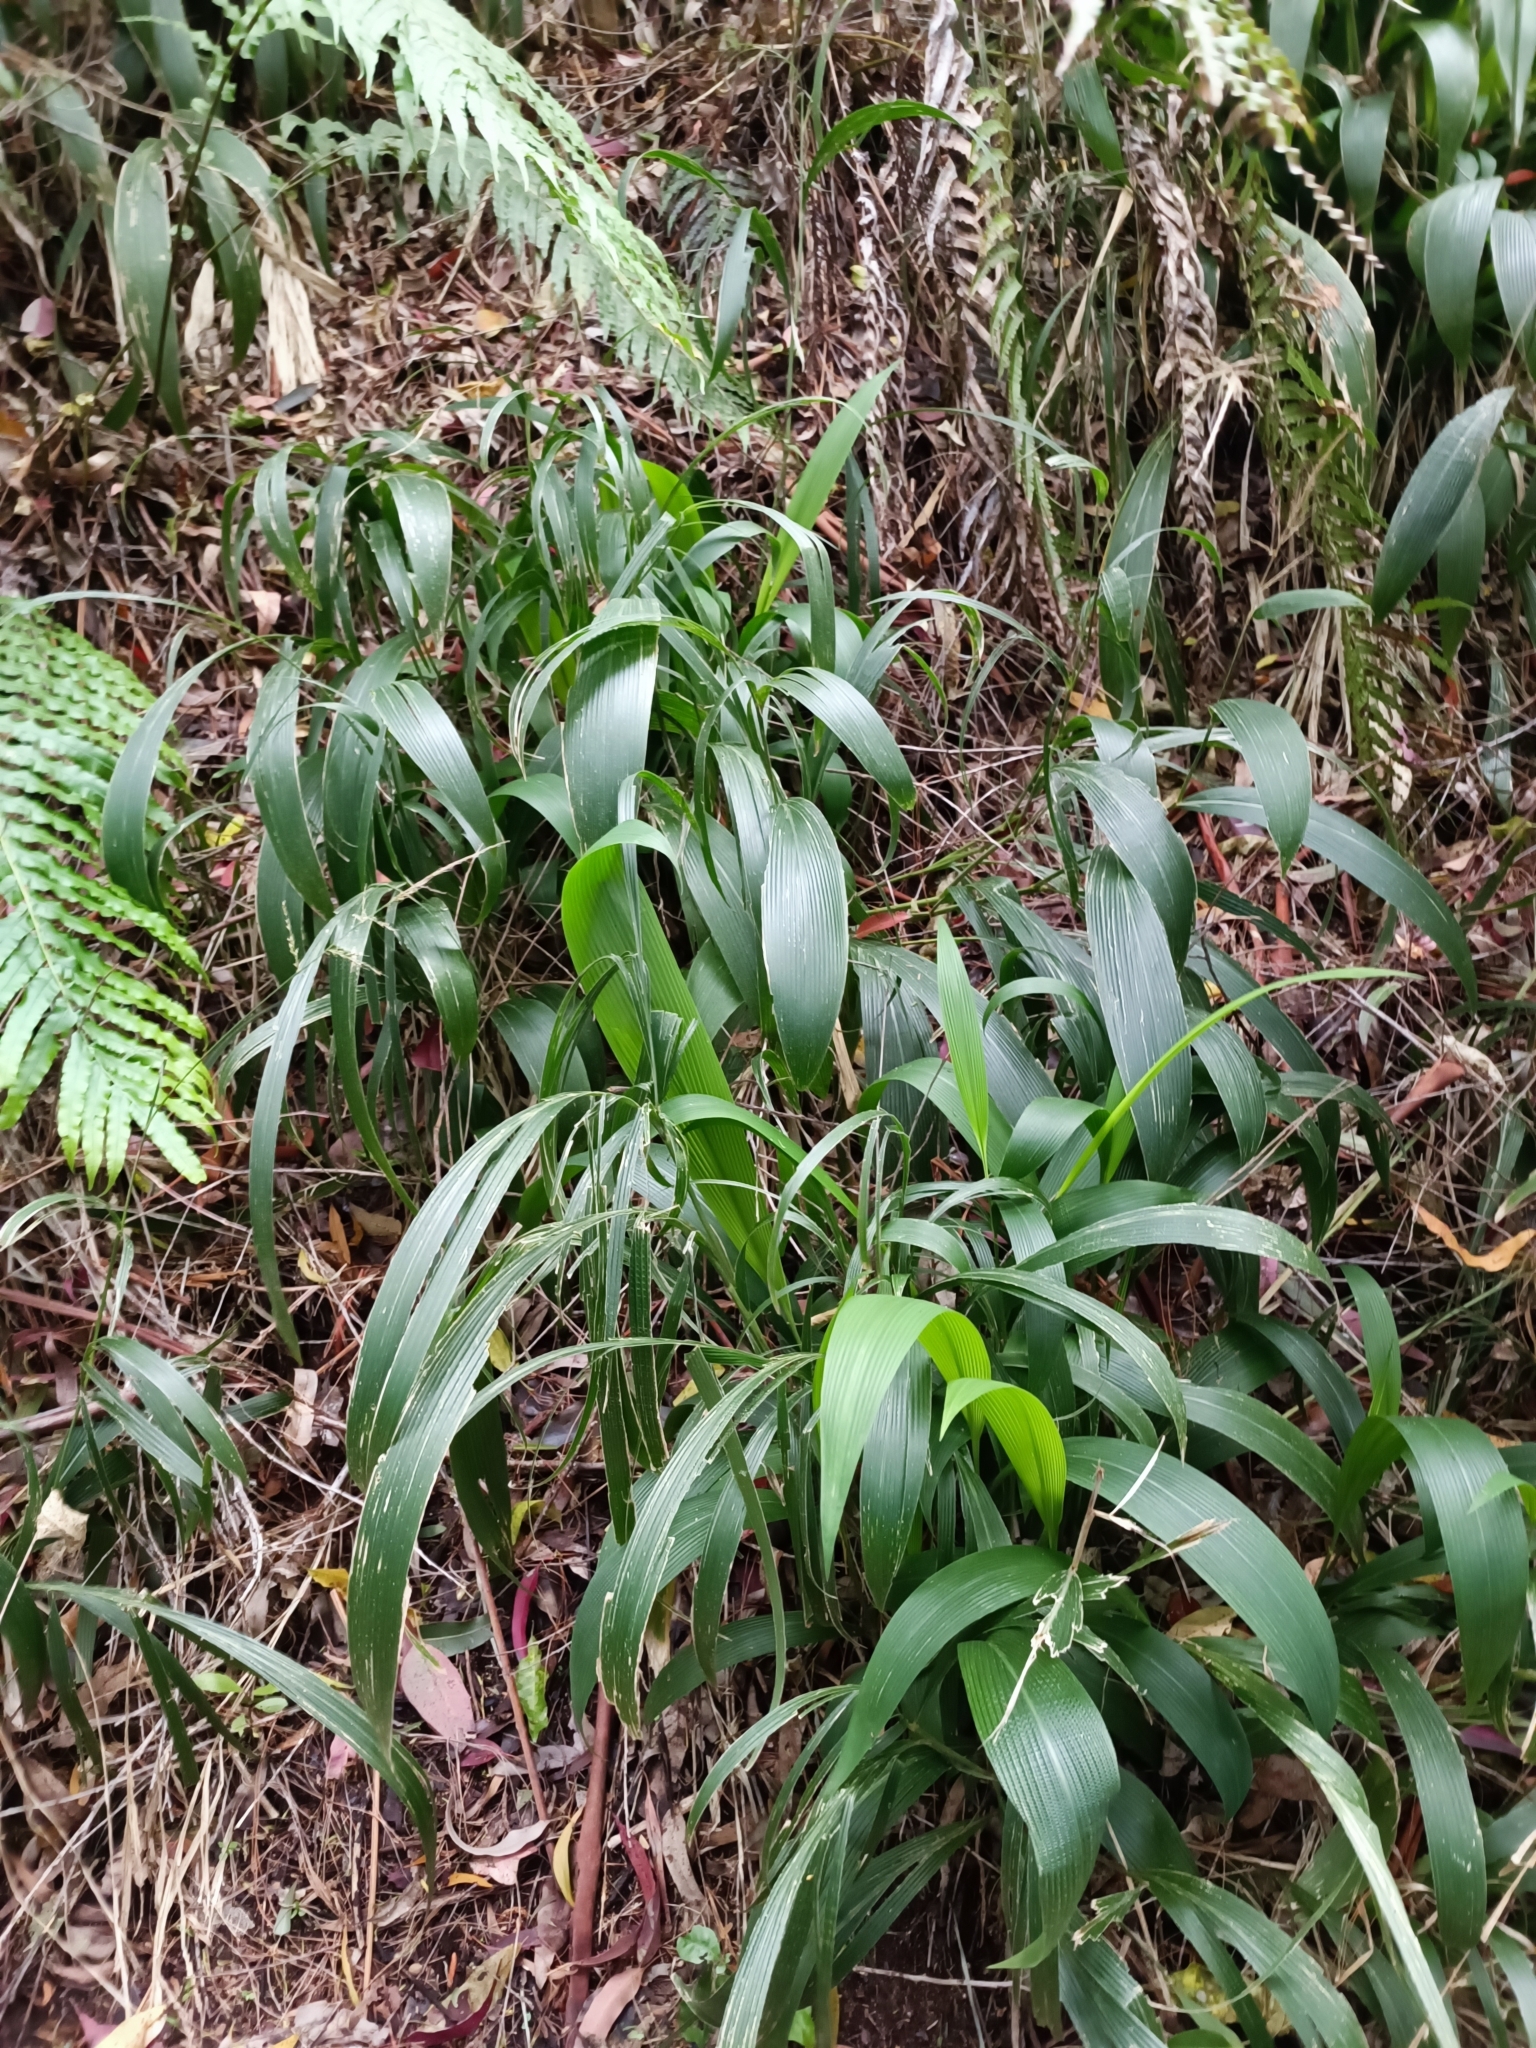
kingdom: Plantae
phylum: Tracheophyta
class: Liliopsida
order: Poales
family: Poaceae
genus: Setaria
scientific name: Setaria palmifolia
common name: Broadleaved bristlegrass
